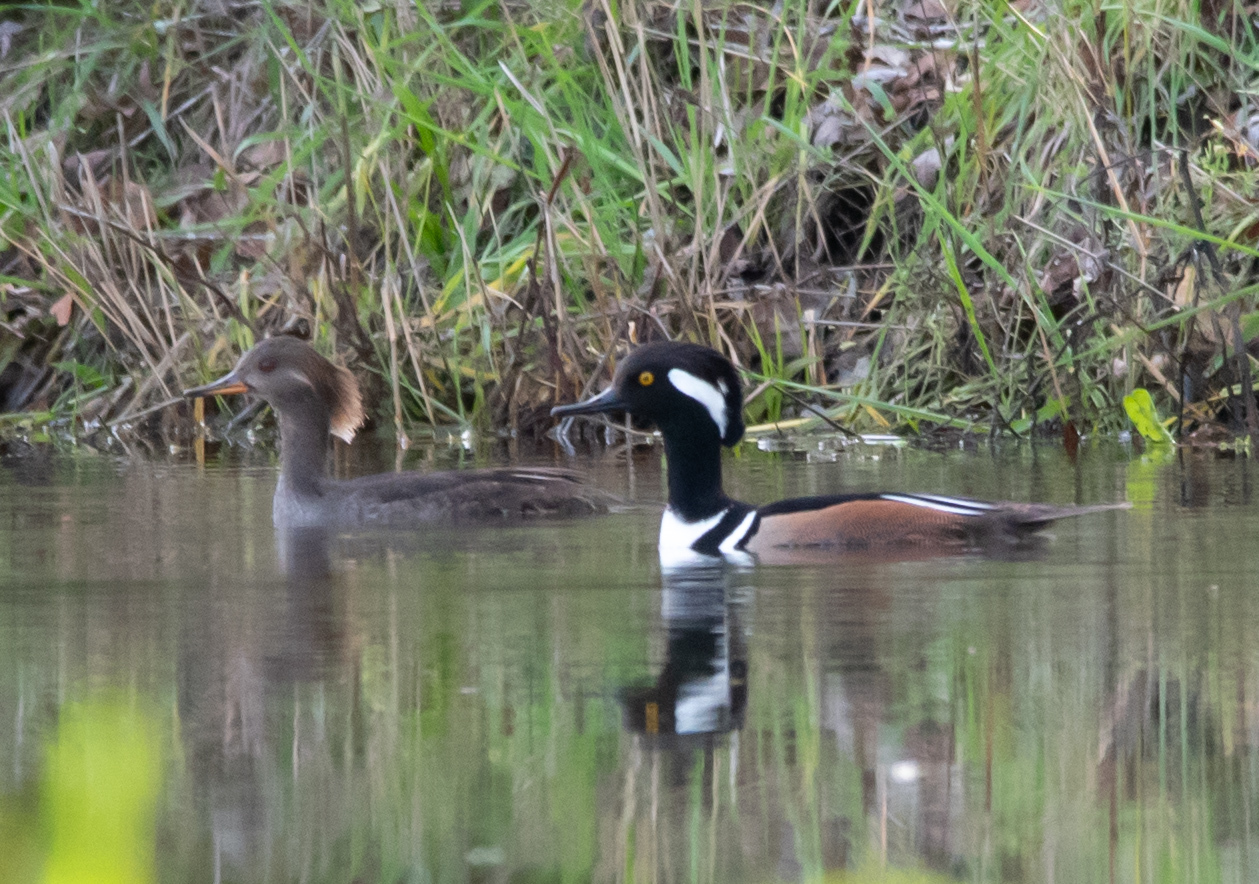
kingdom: Animalia
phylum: Chordata
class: Aves
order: Anseriformes
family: Anatidae
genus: Lophodytes
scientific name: Lophodytes cucullatus
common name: Hooded merganser
